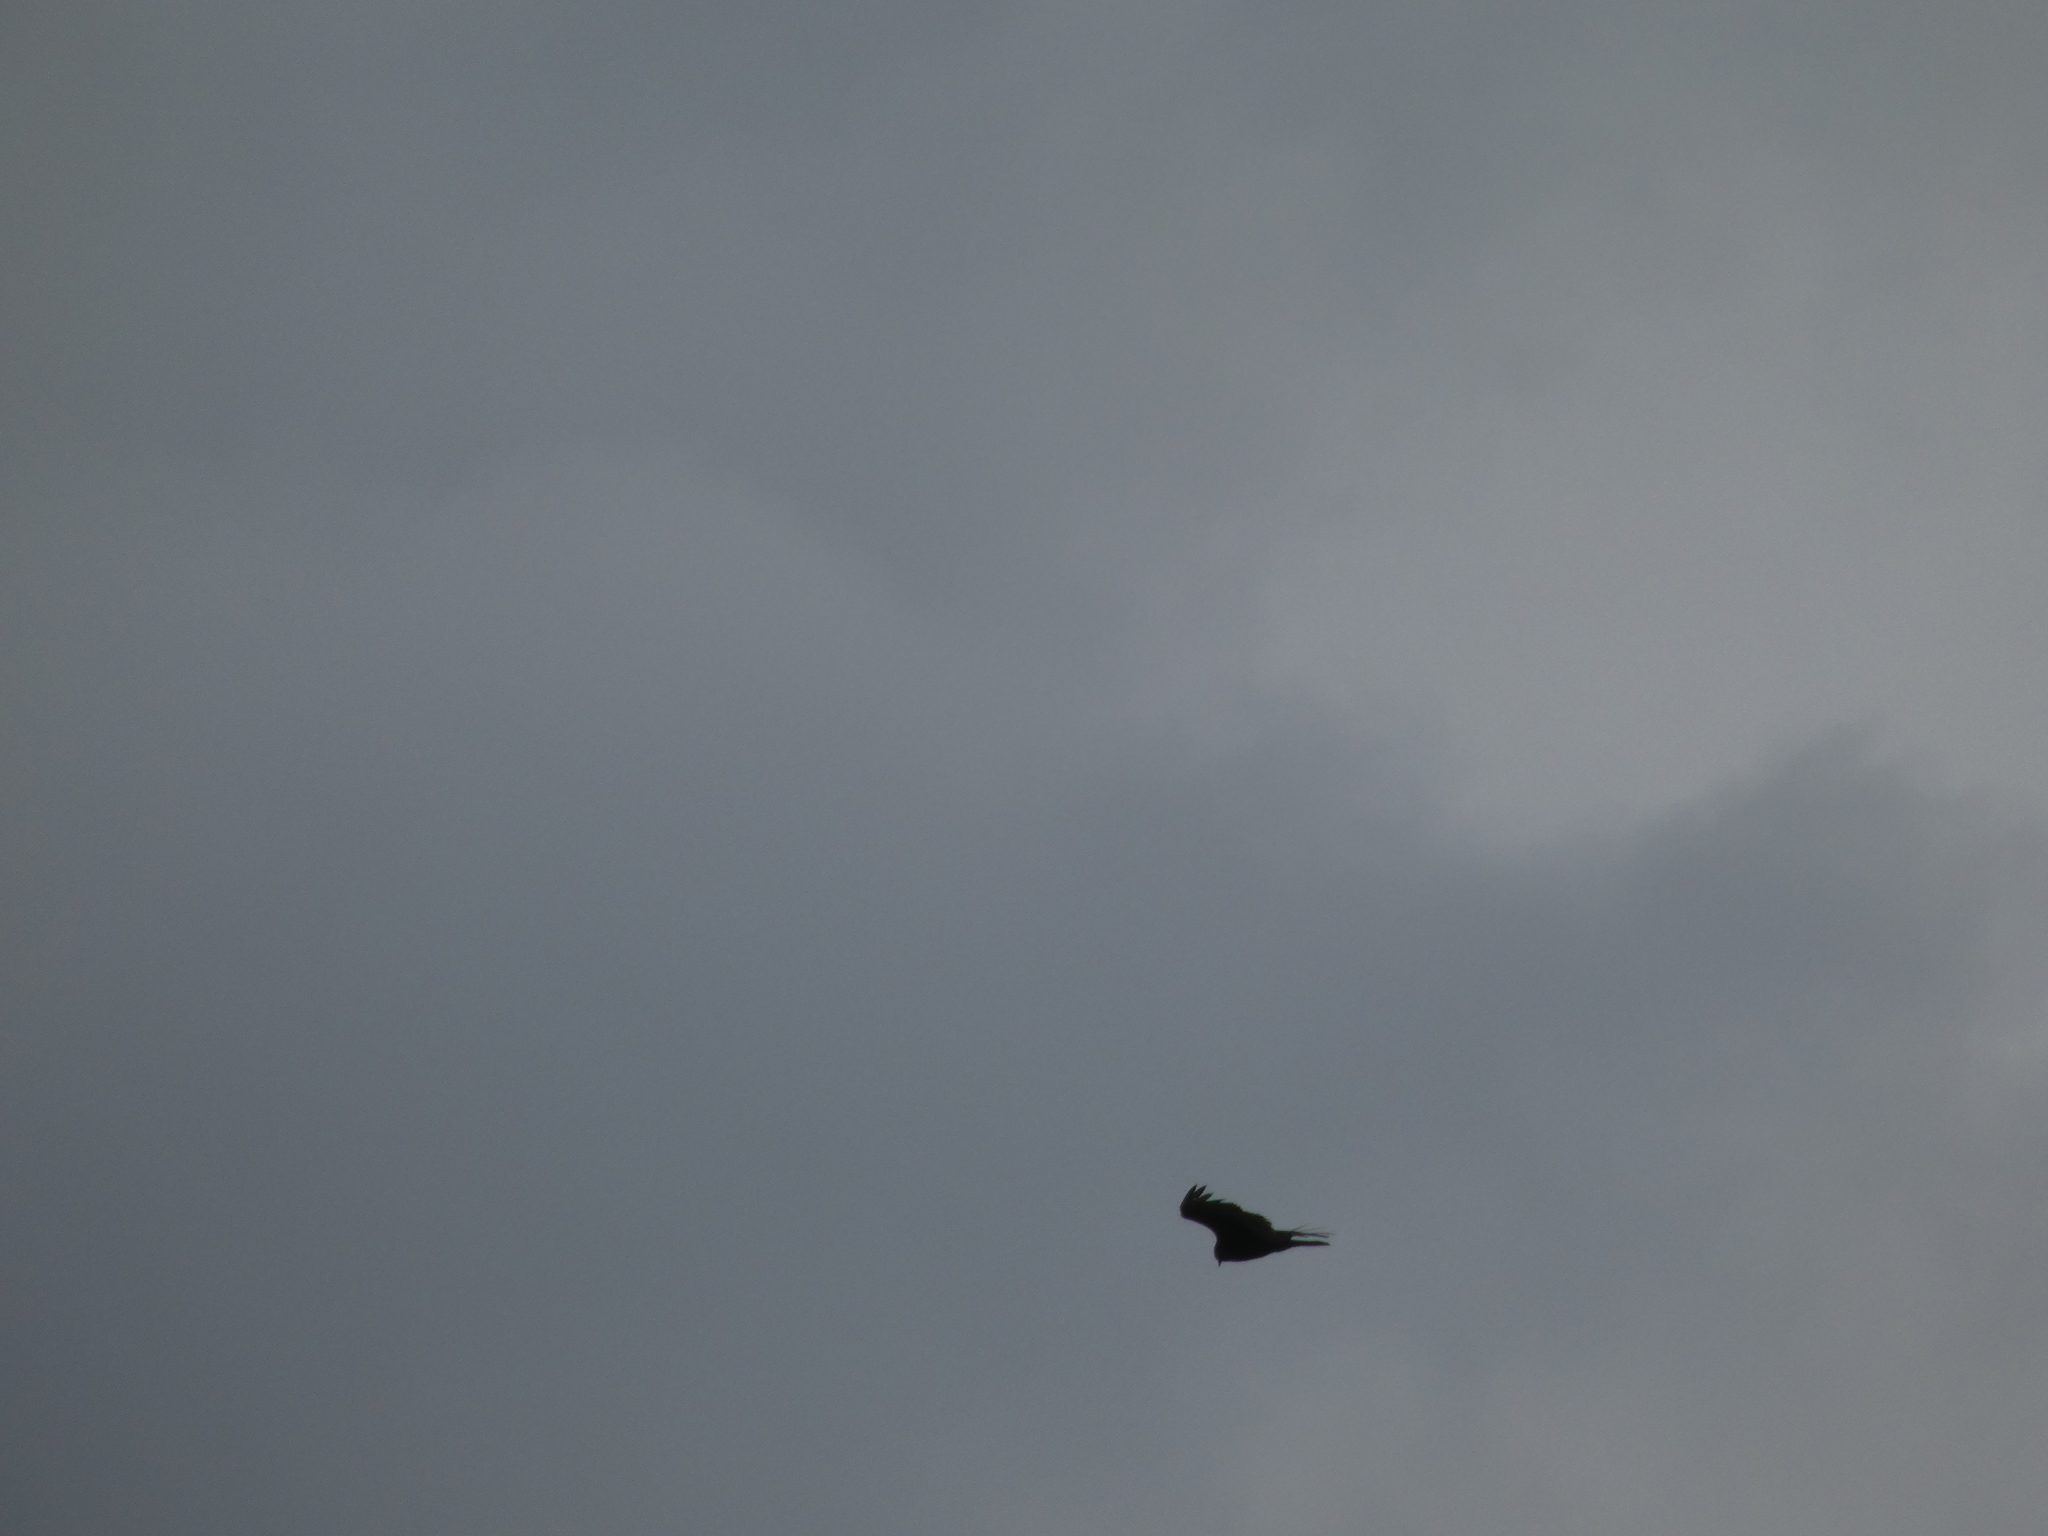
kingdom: Animalia
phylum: Chordata
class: Aves
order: Accipitriformes
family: Cathartidae
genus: Cathartes
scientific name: Cathartes aura
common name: Turkey vulture
